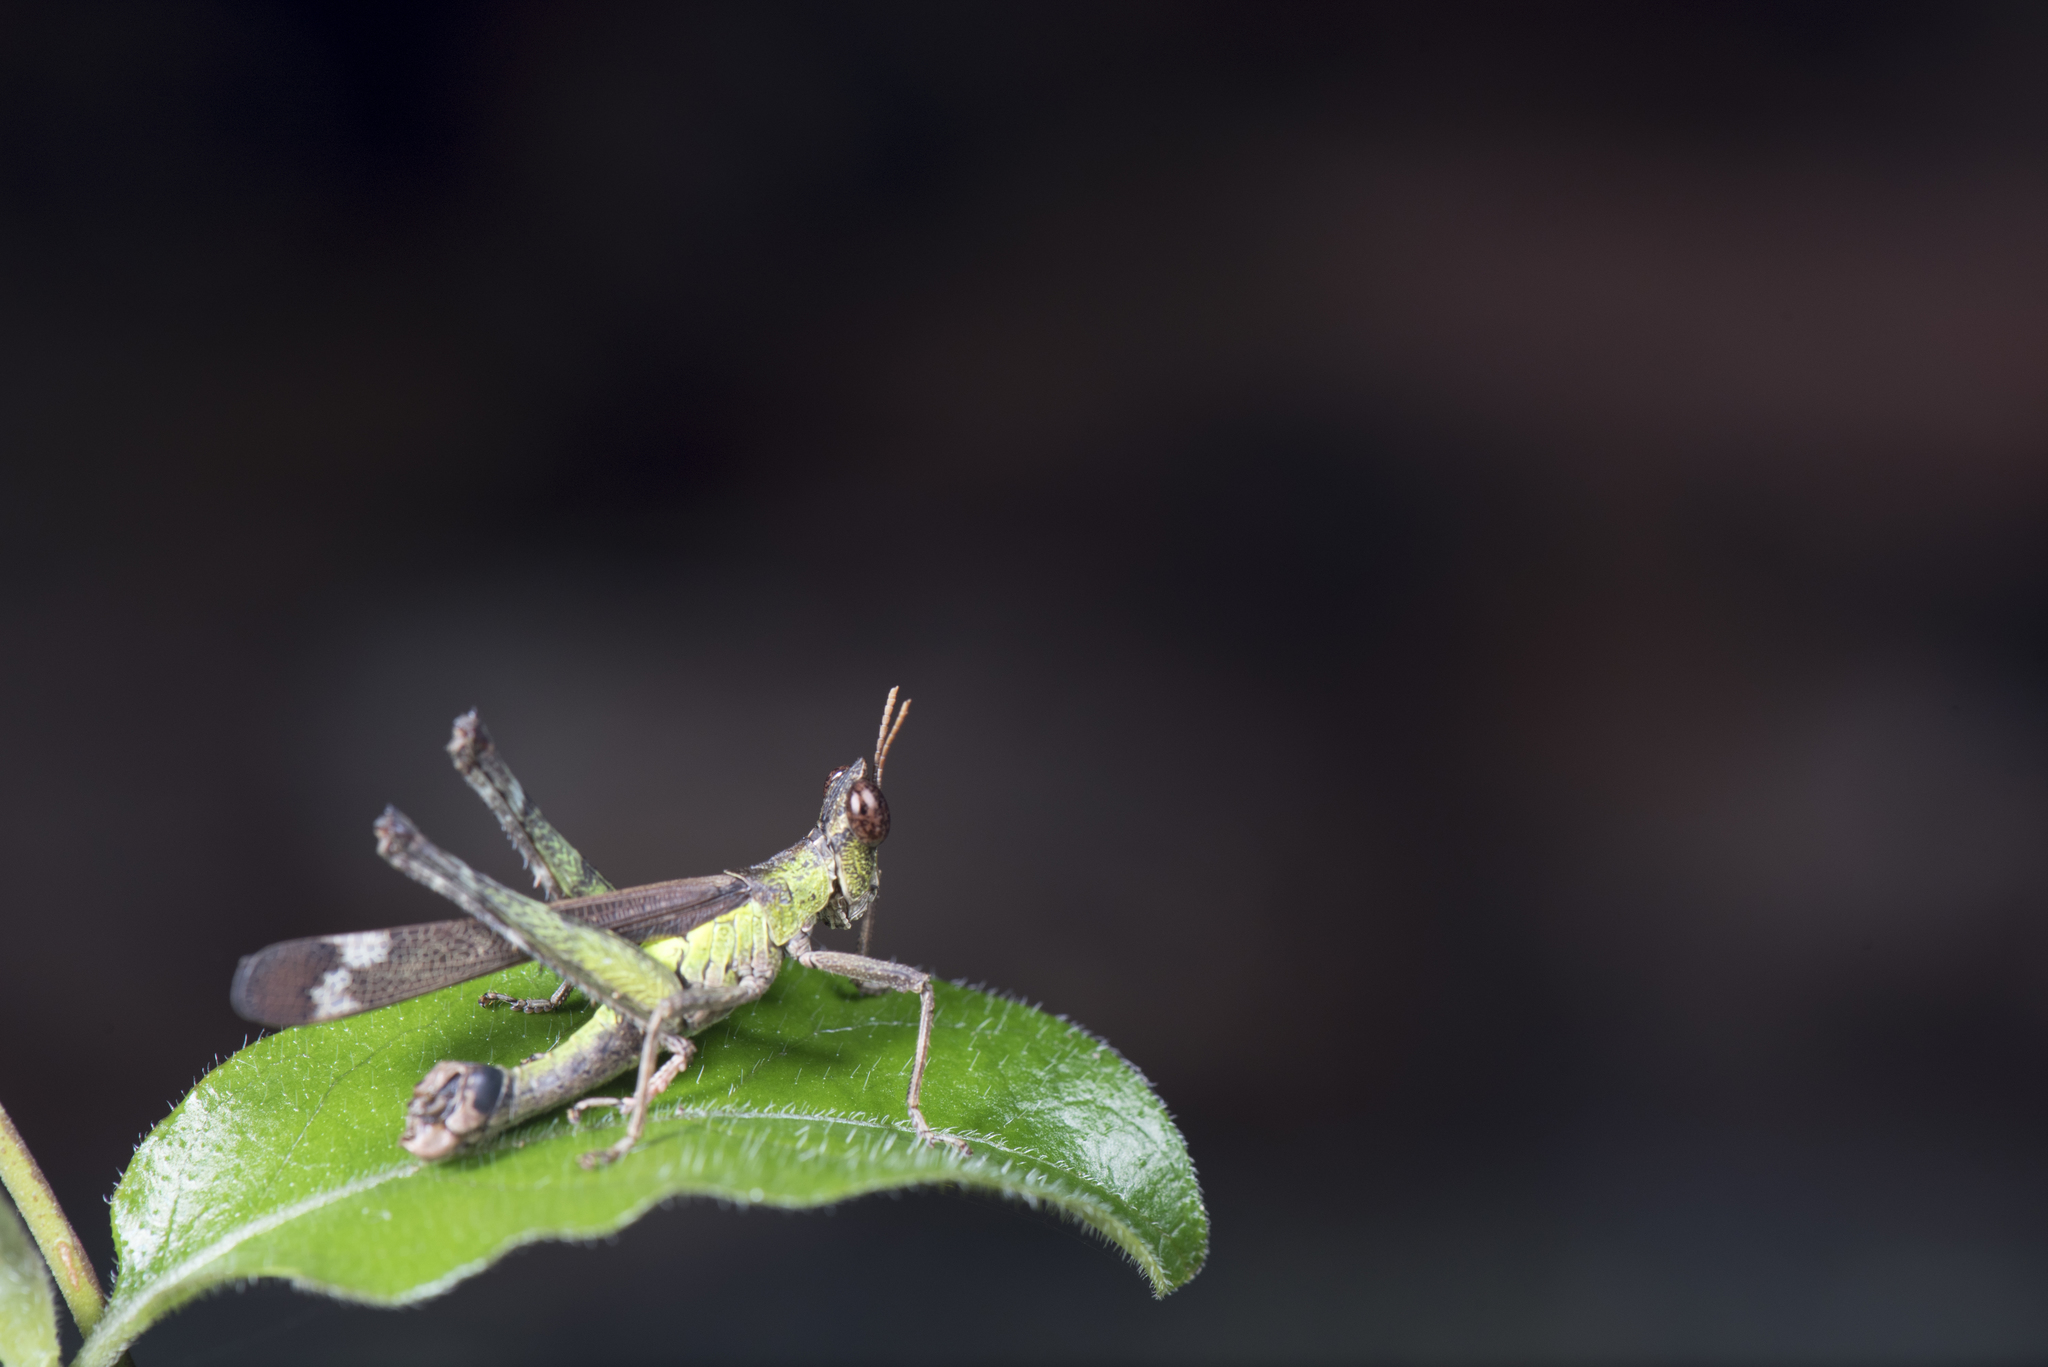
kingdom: Animalia
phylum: Arthropoda
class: Insecta
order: Orthoptera
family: Chorotypidae
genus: Erianthella
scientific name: Erianthella formosana
